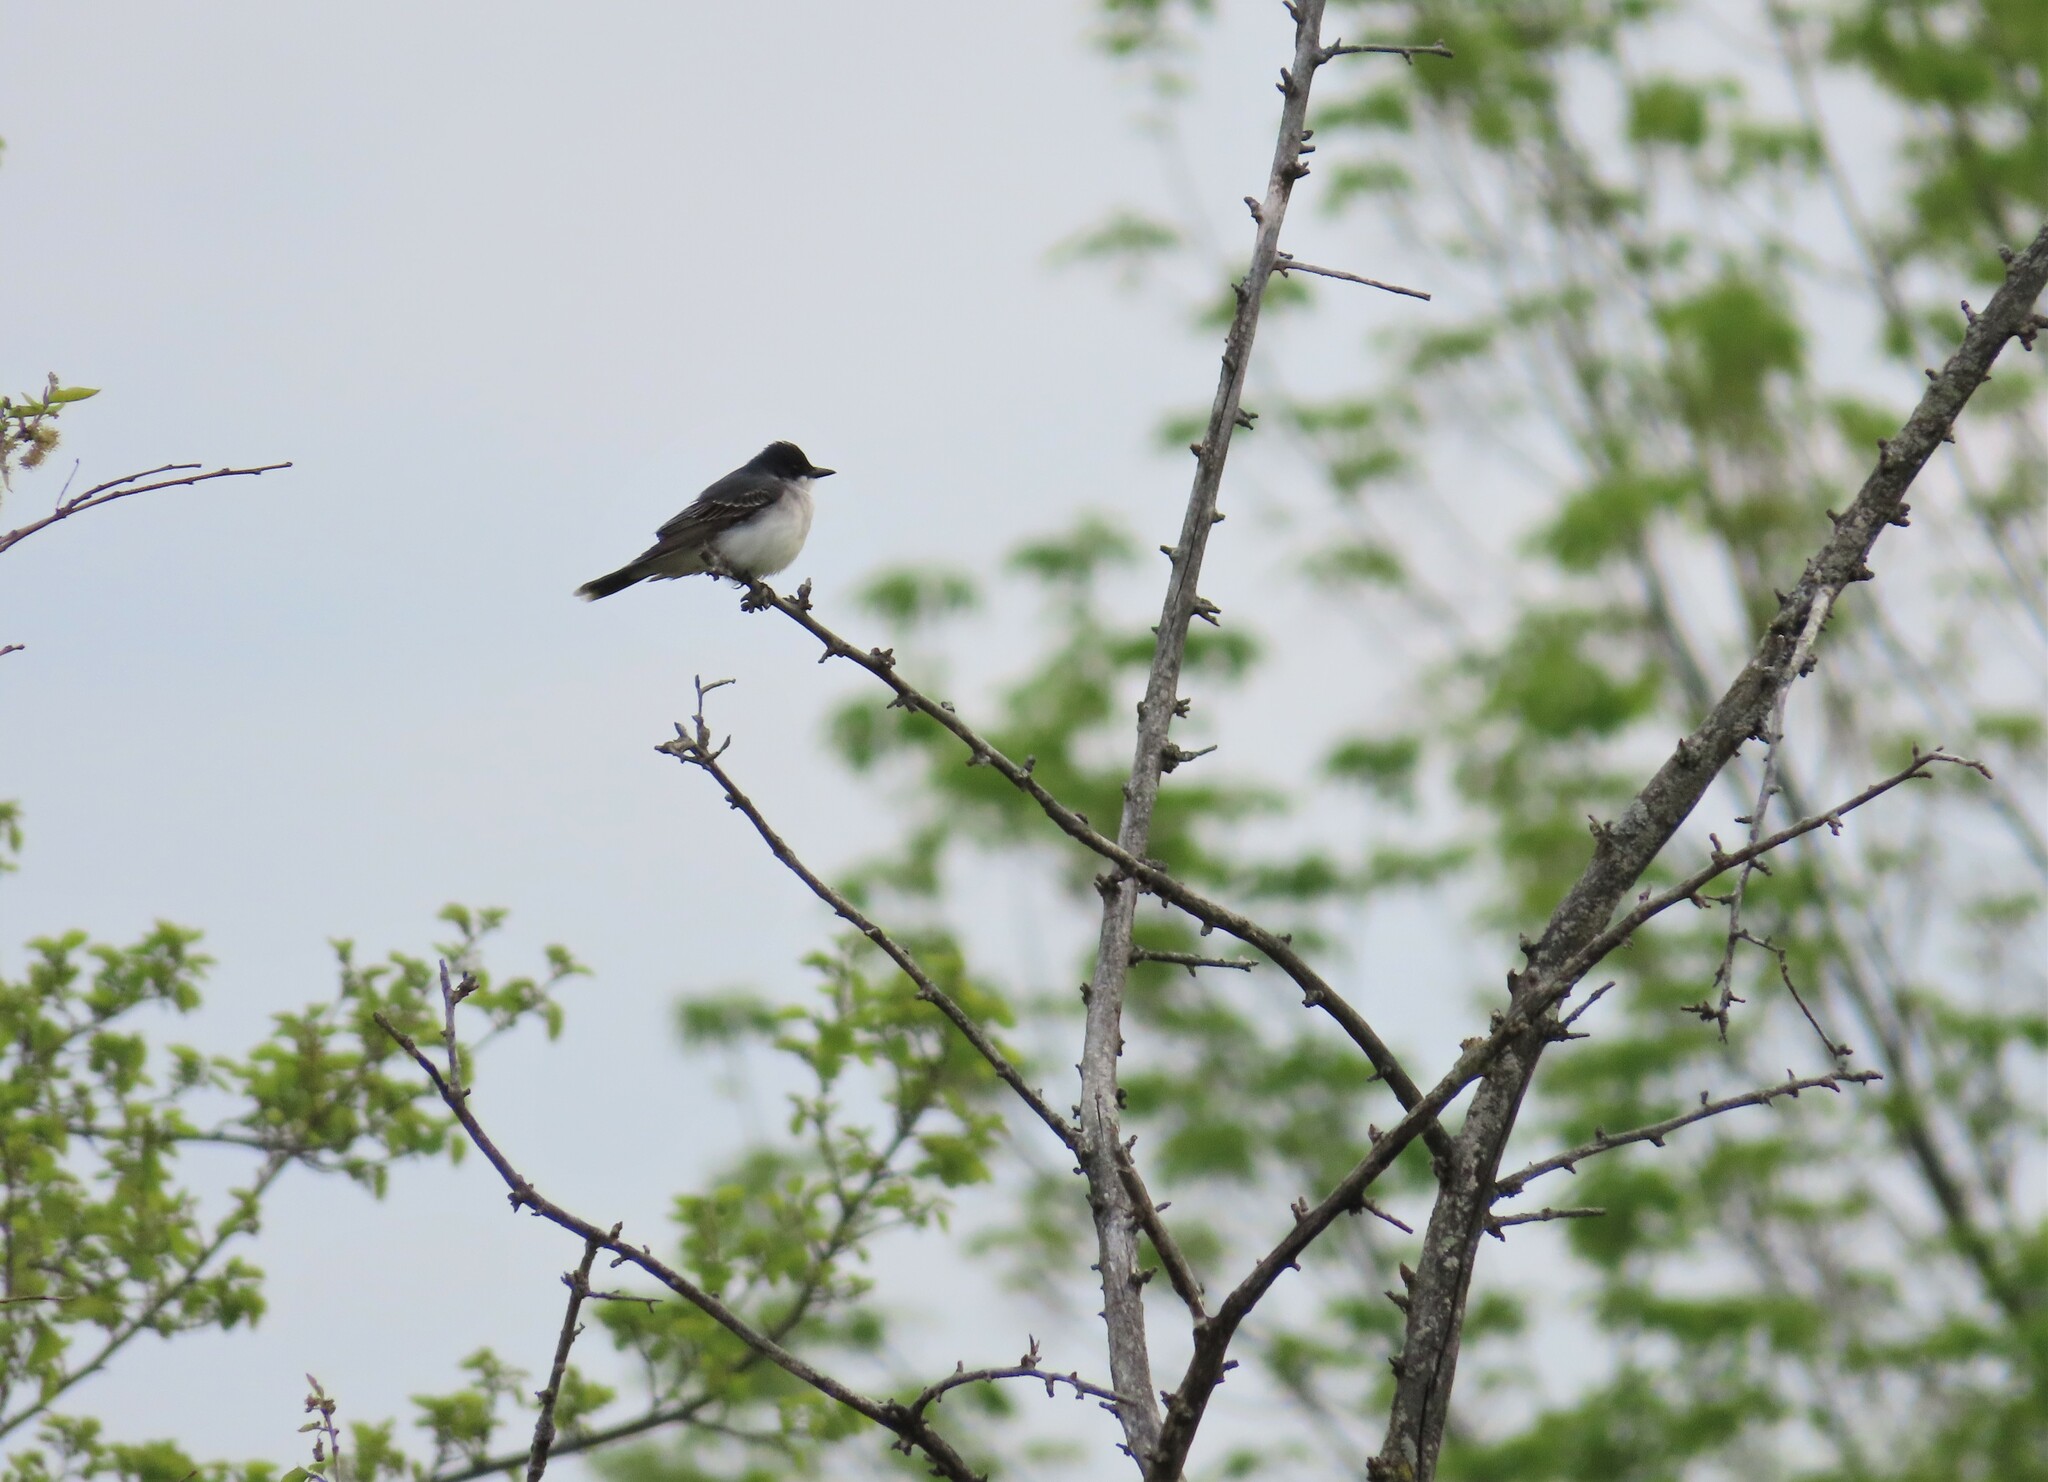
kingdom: Animalia
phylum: Chordata
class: Aves
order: Passeriformes
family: Tyrannidae
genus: Tyrannus
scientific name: Tyrannus tyrannus
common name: Eastern kingbird
